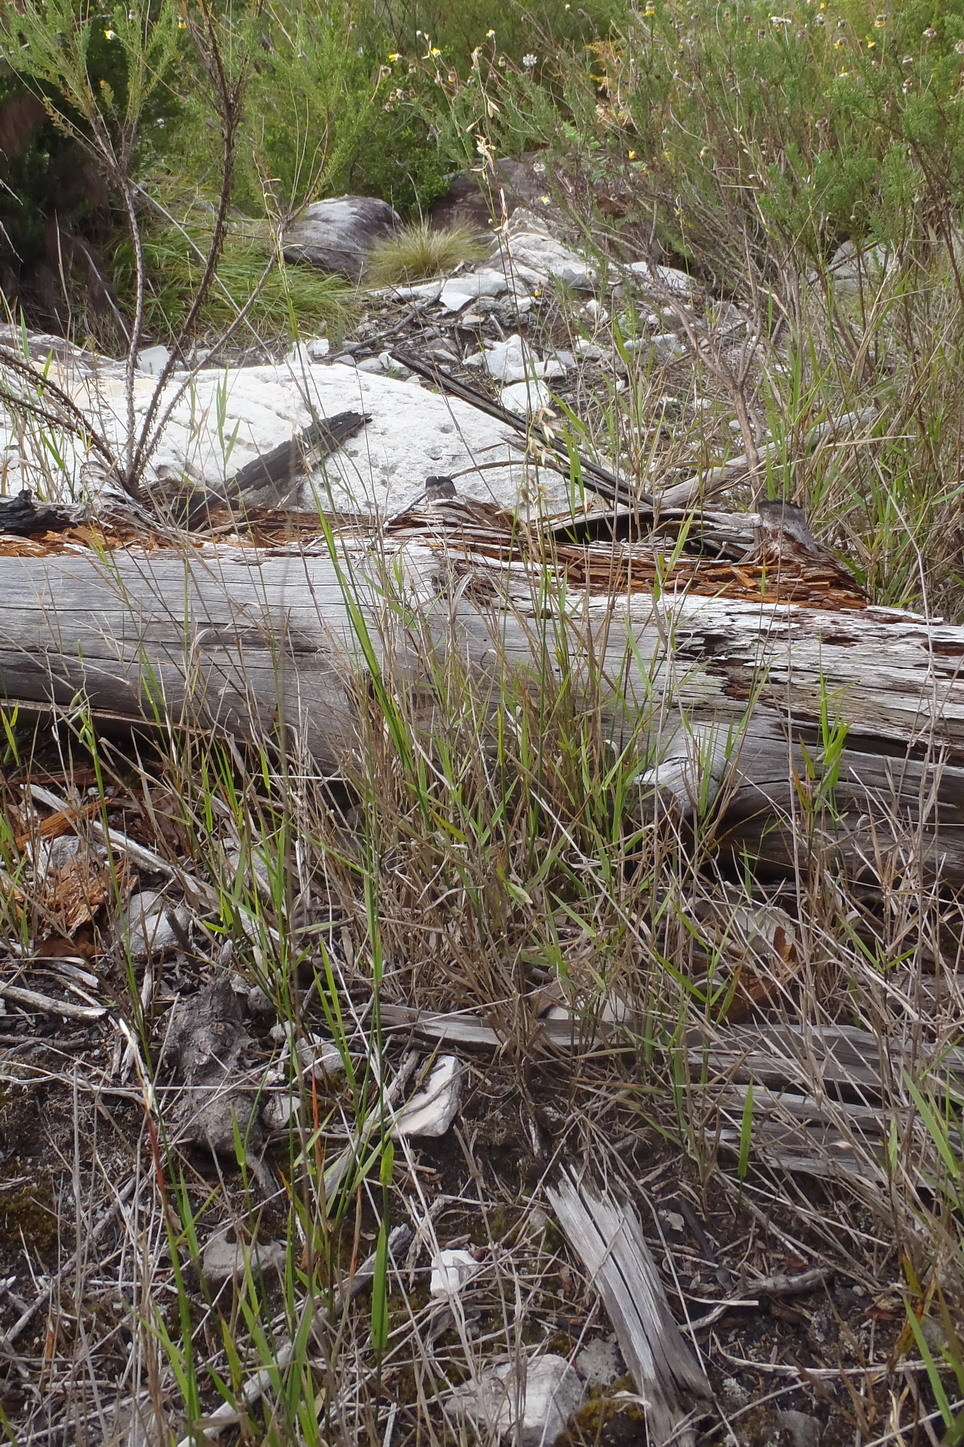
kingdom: Plantae
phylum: Tracheophyta
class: Liliopsida
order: Poales
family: Poaceae
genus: Ehrharta
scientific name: Ehrharta calycina
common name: Perennial veldtgrass
